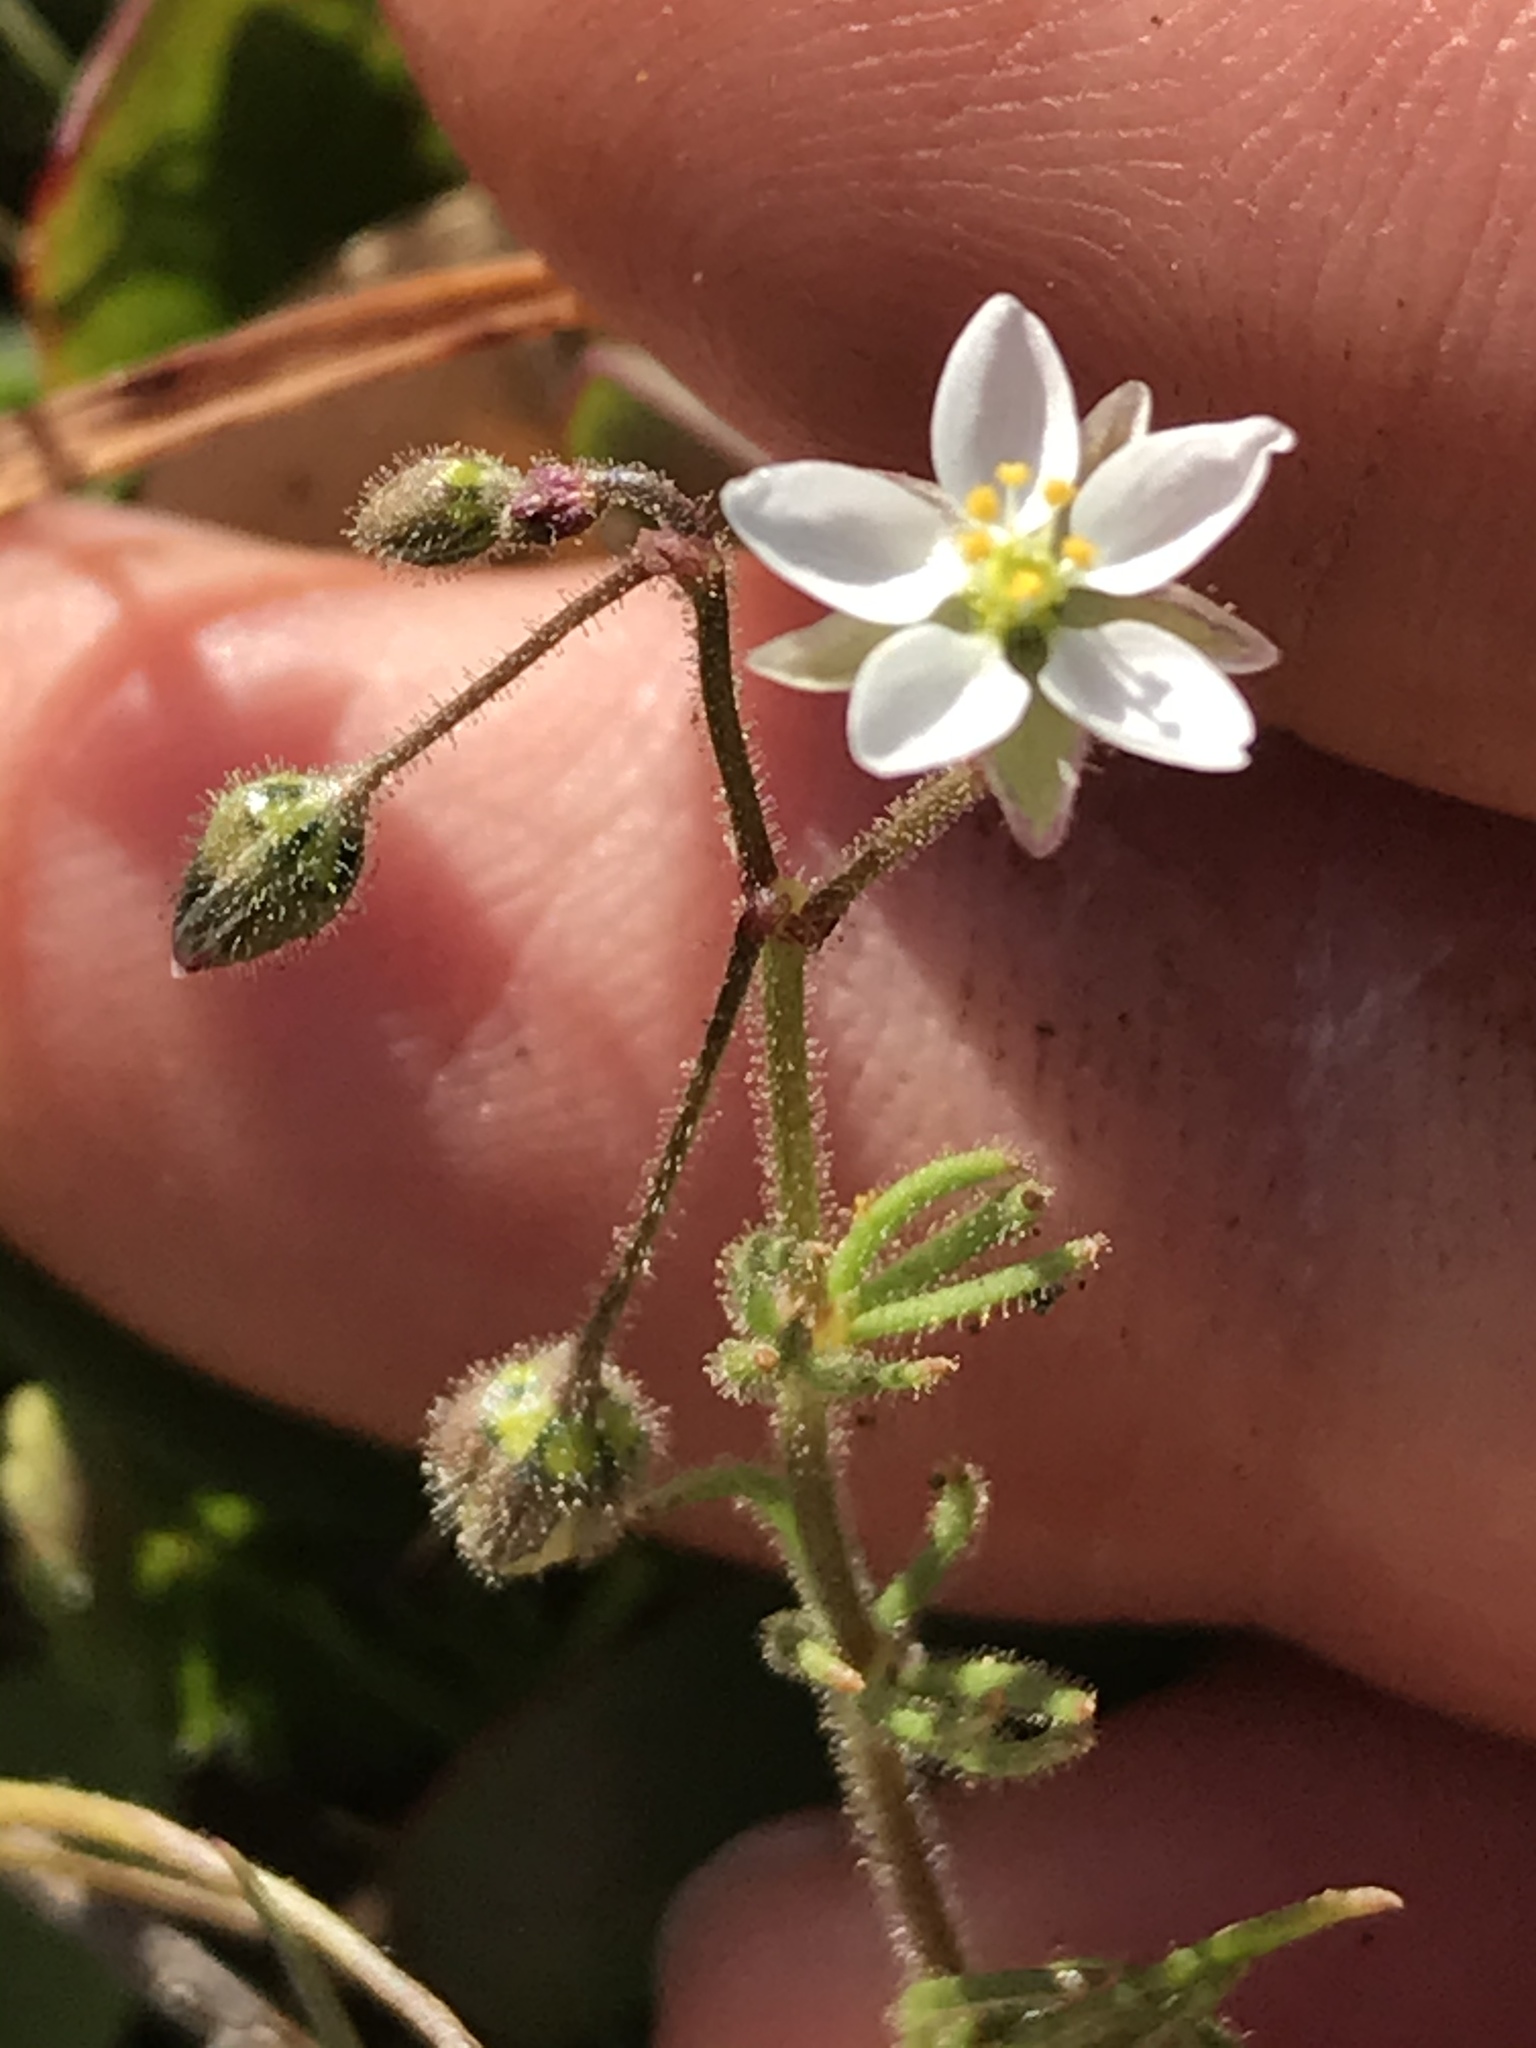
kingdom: Plantae
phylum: Tracheophyta
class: Magnoliopsida
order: Caryophyllales
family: Caryophyllaceae
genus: Spergula
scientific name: Spergula arvensis
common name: Corn spurrey
